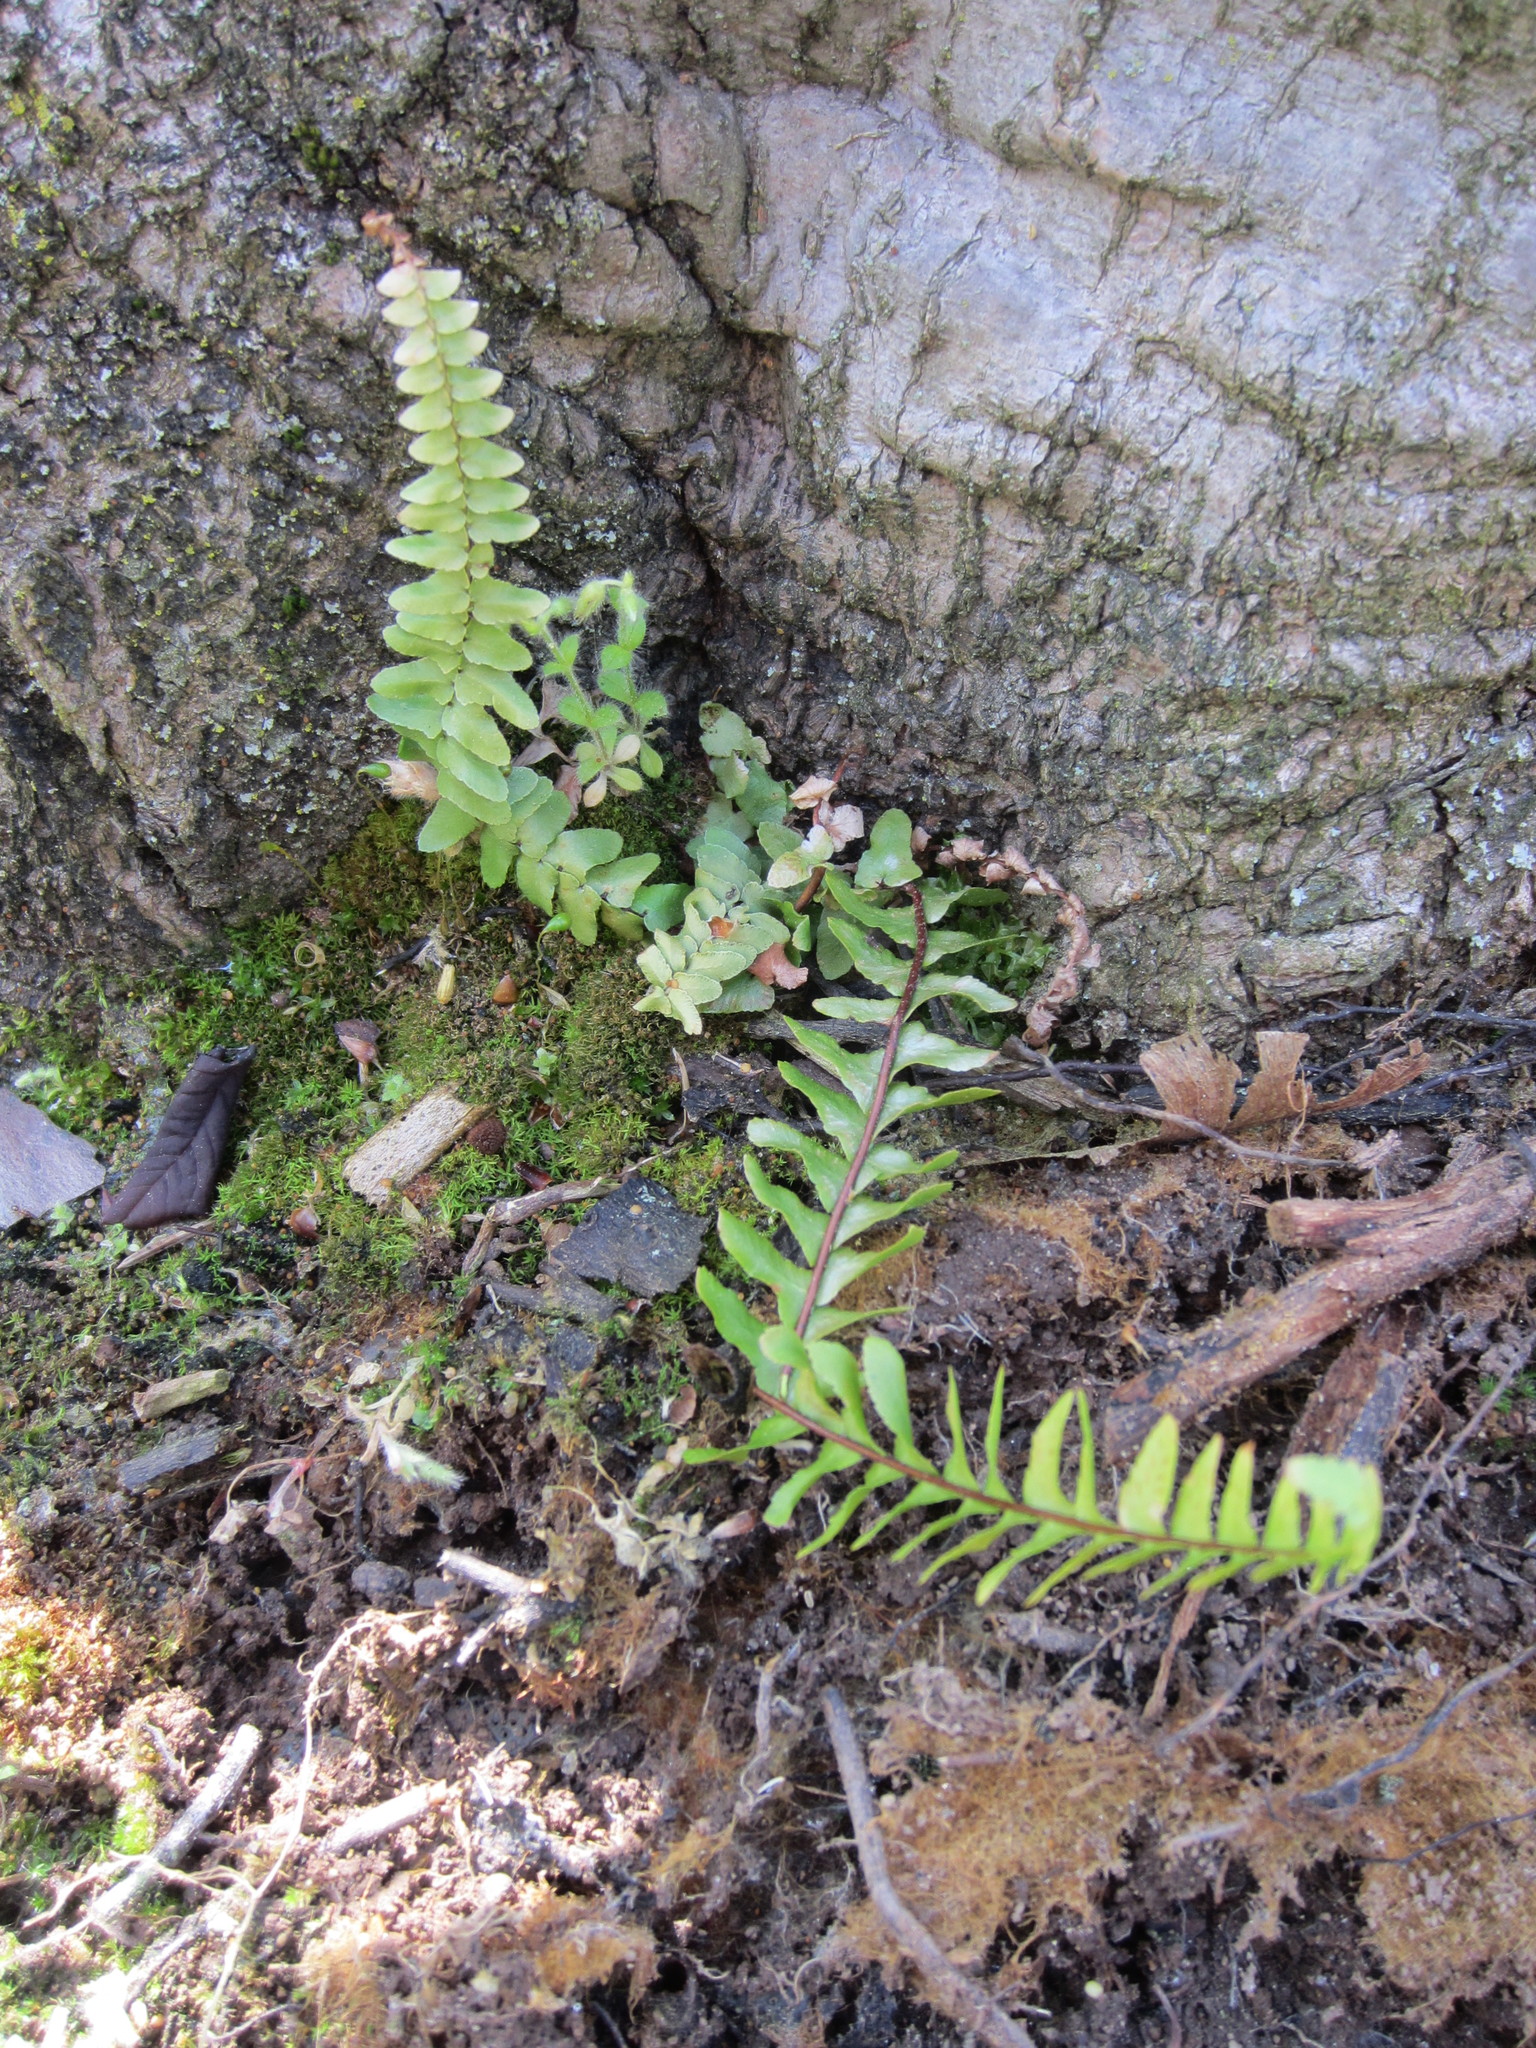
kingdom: Plantae
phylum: Tracheophyta
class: Polypodiopsida
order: Polypodiales
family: Aspleniaceae
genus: Asplenium
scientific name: Asplenium platyneuron
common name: Ebony spleenwort
